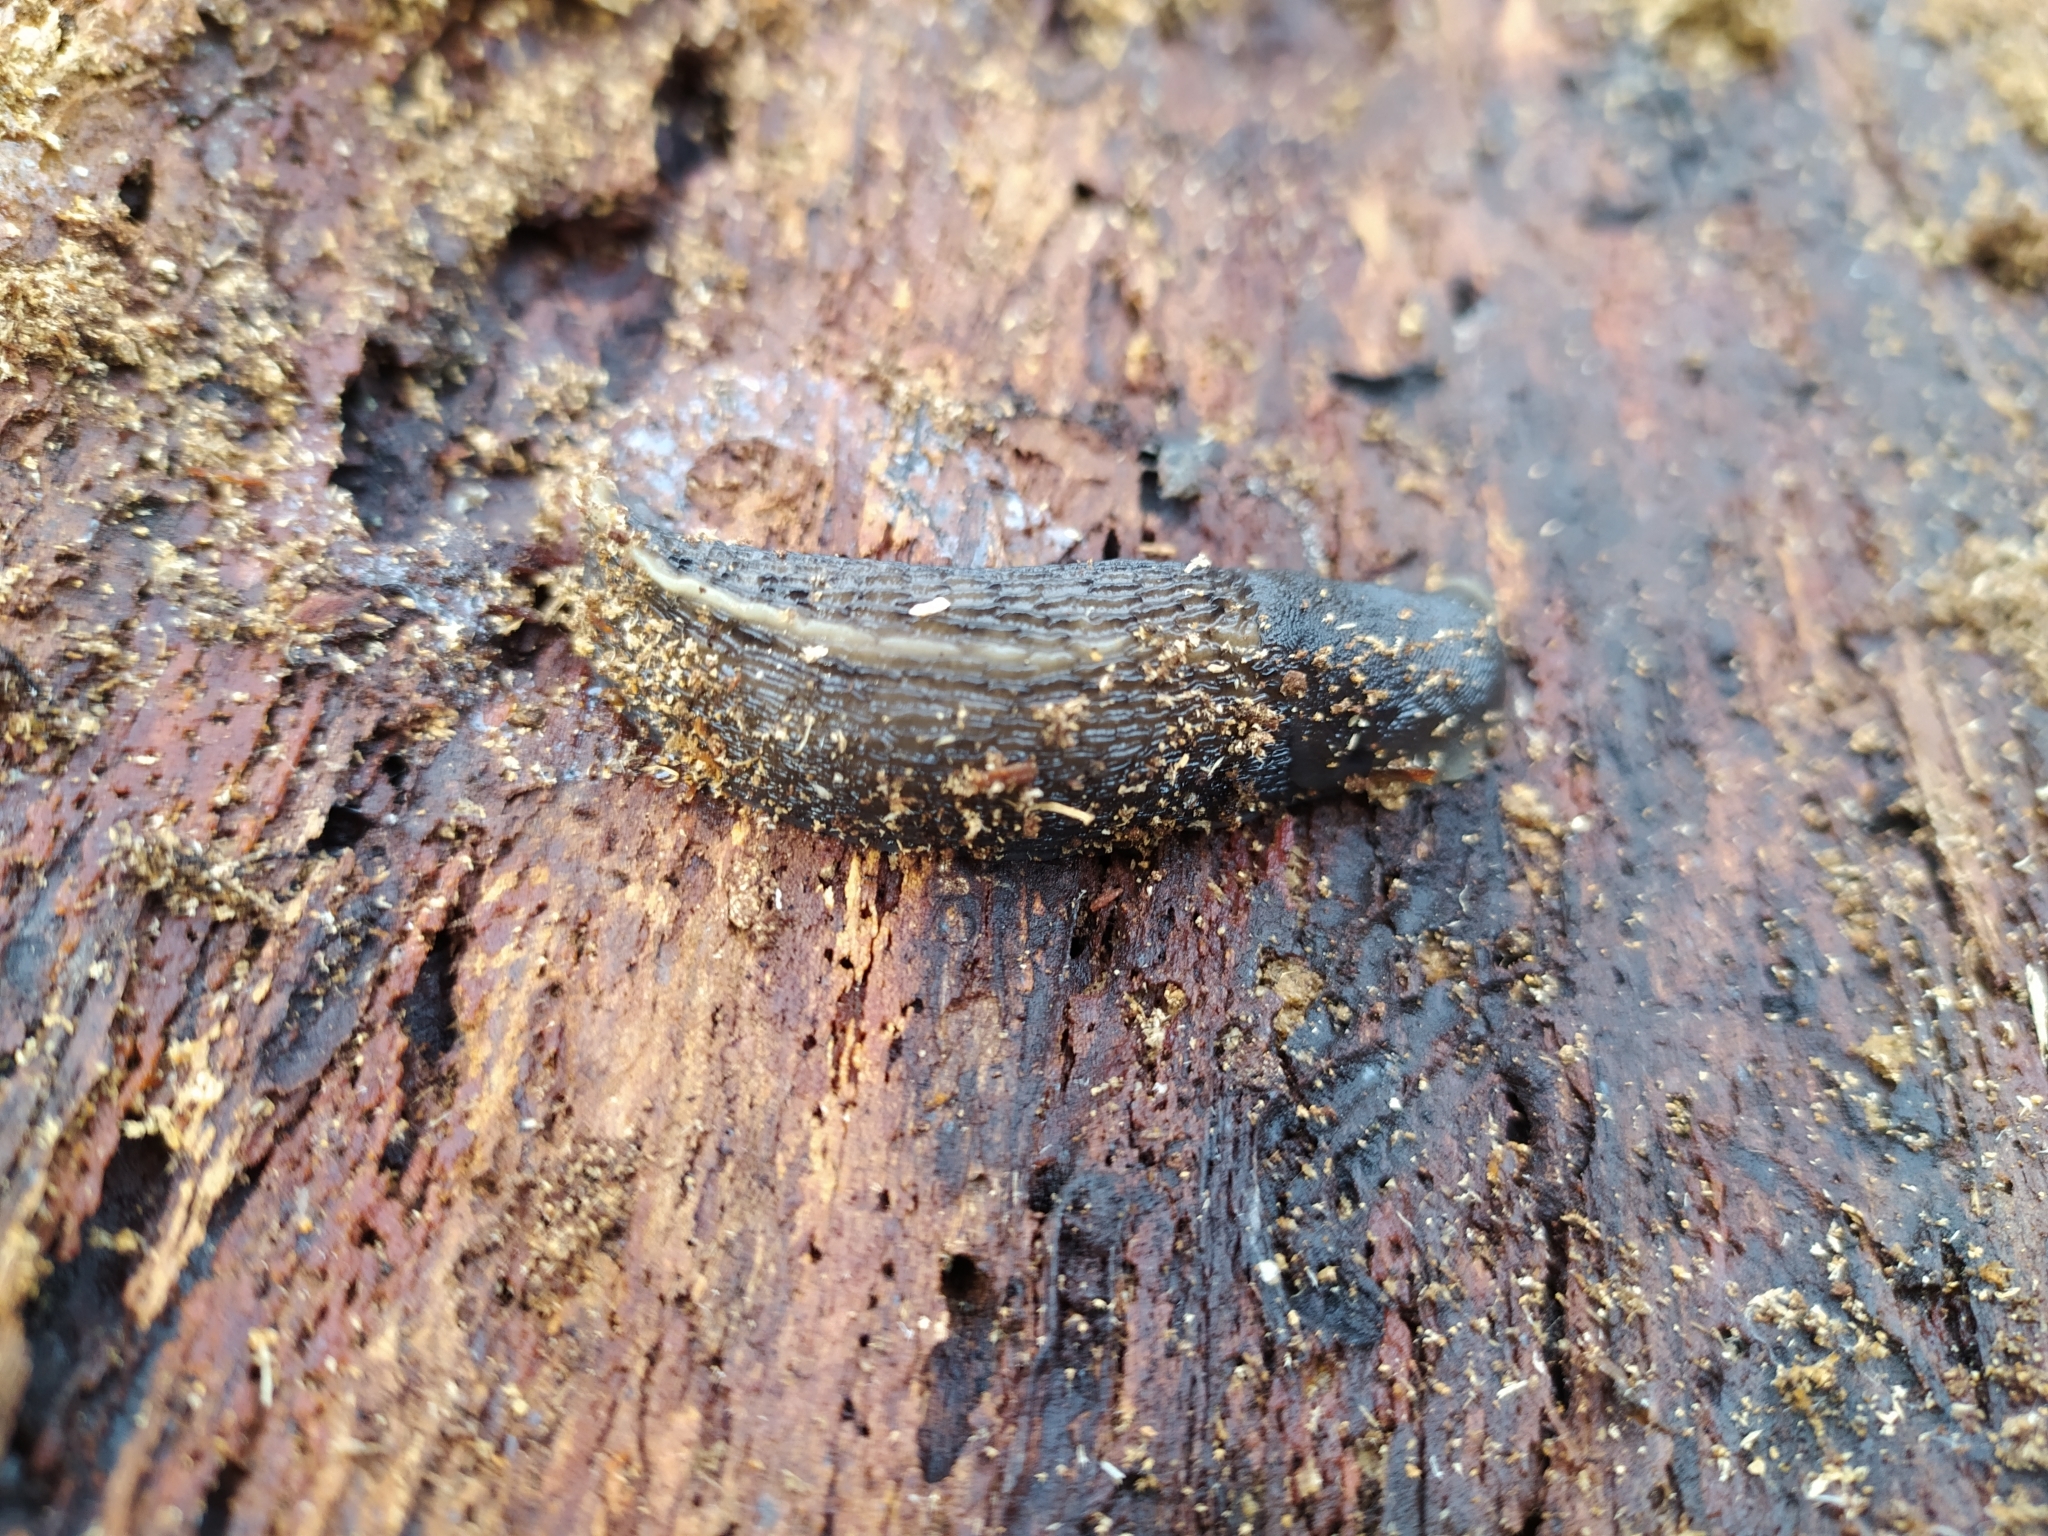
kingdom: Animalia
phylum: Mollusca
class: Gastropoda
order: Stylommatophora
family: Limacidae
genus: Limax
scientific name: Limax cinereoniger
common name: Ash-black slug
